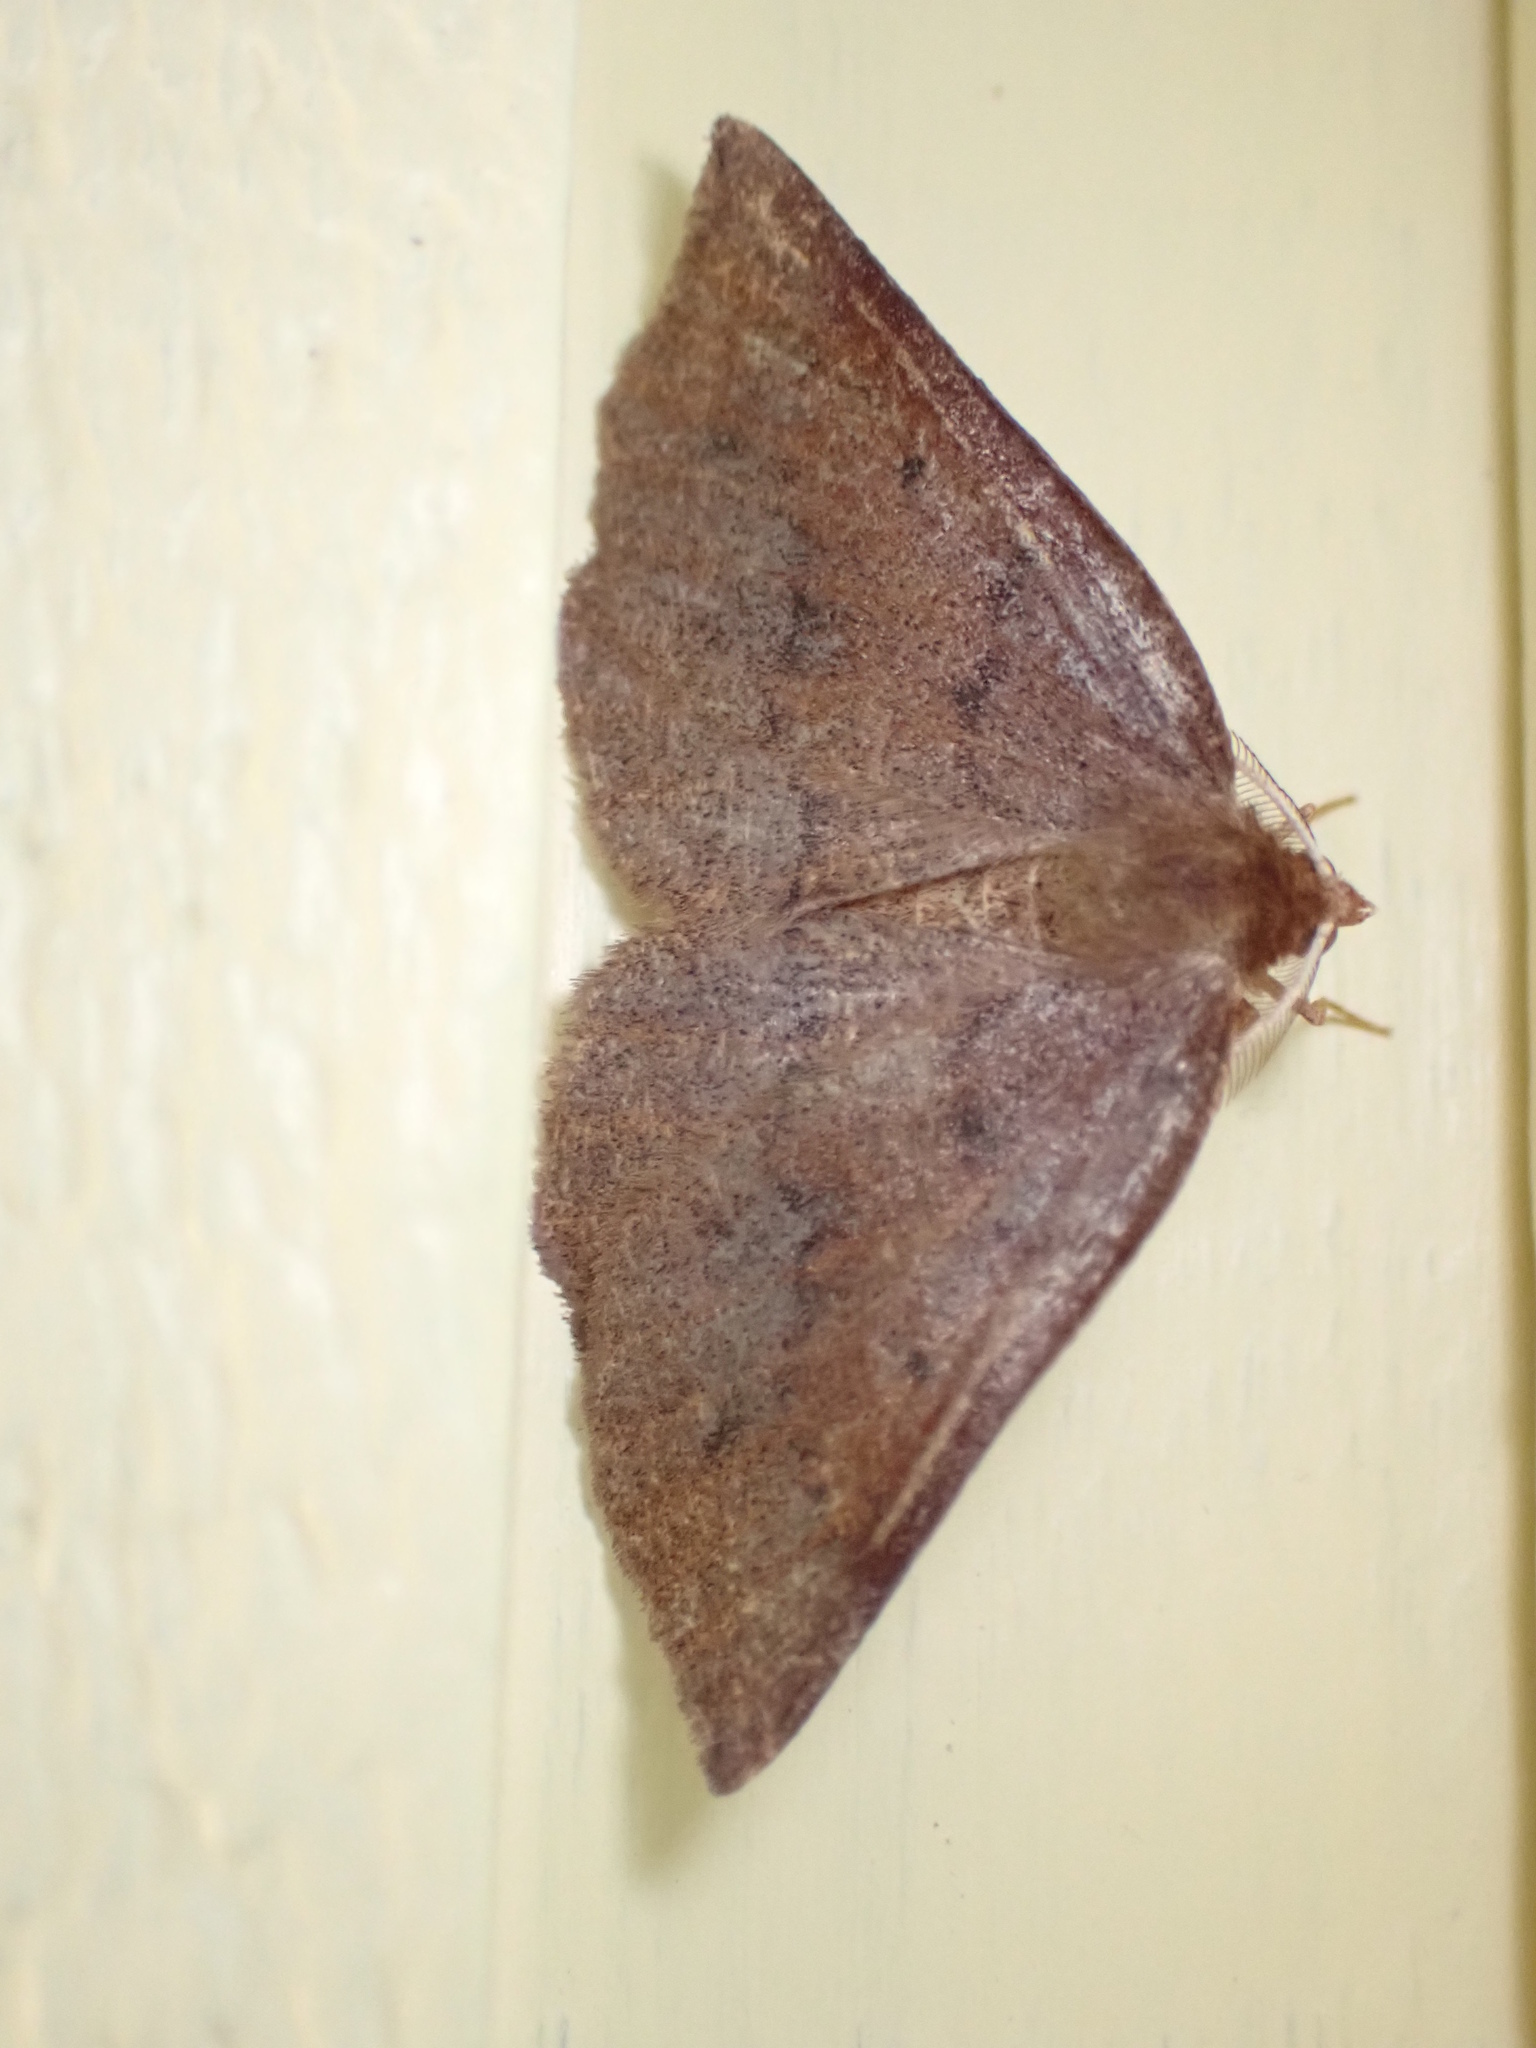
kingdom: Animalia
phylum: Arthropoda
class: Insecta
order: Lepidoptera
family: Geometridae
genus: Metarranthis
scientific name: Metarranthis duaria
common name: Ruddy metarranthis moth
